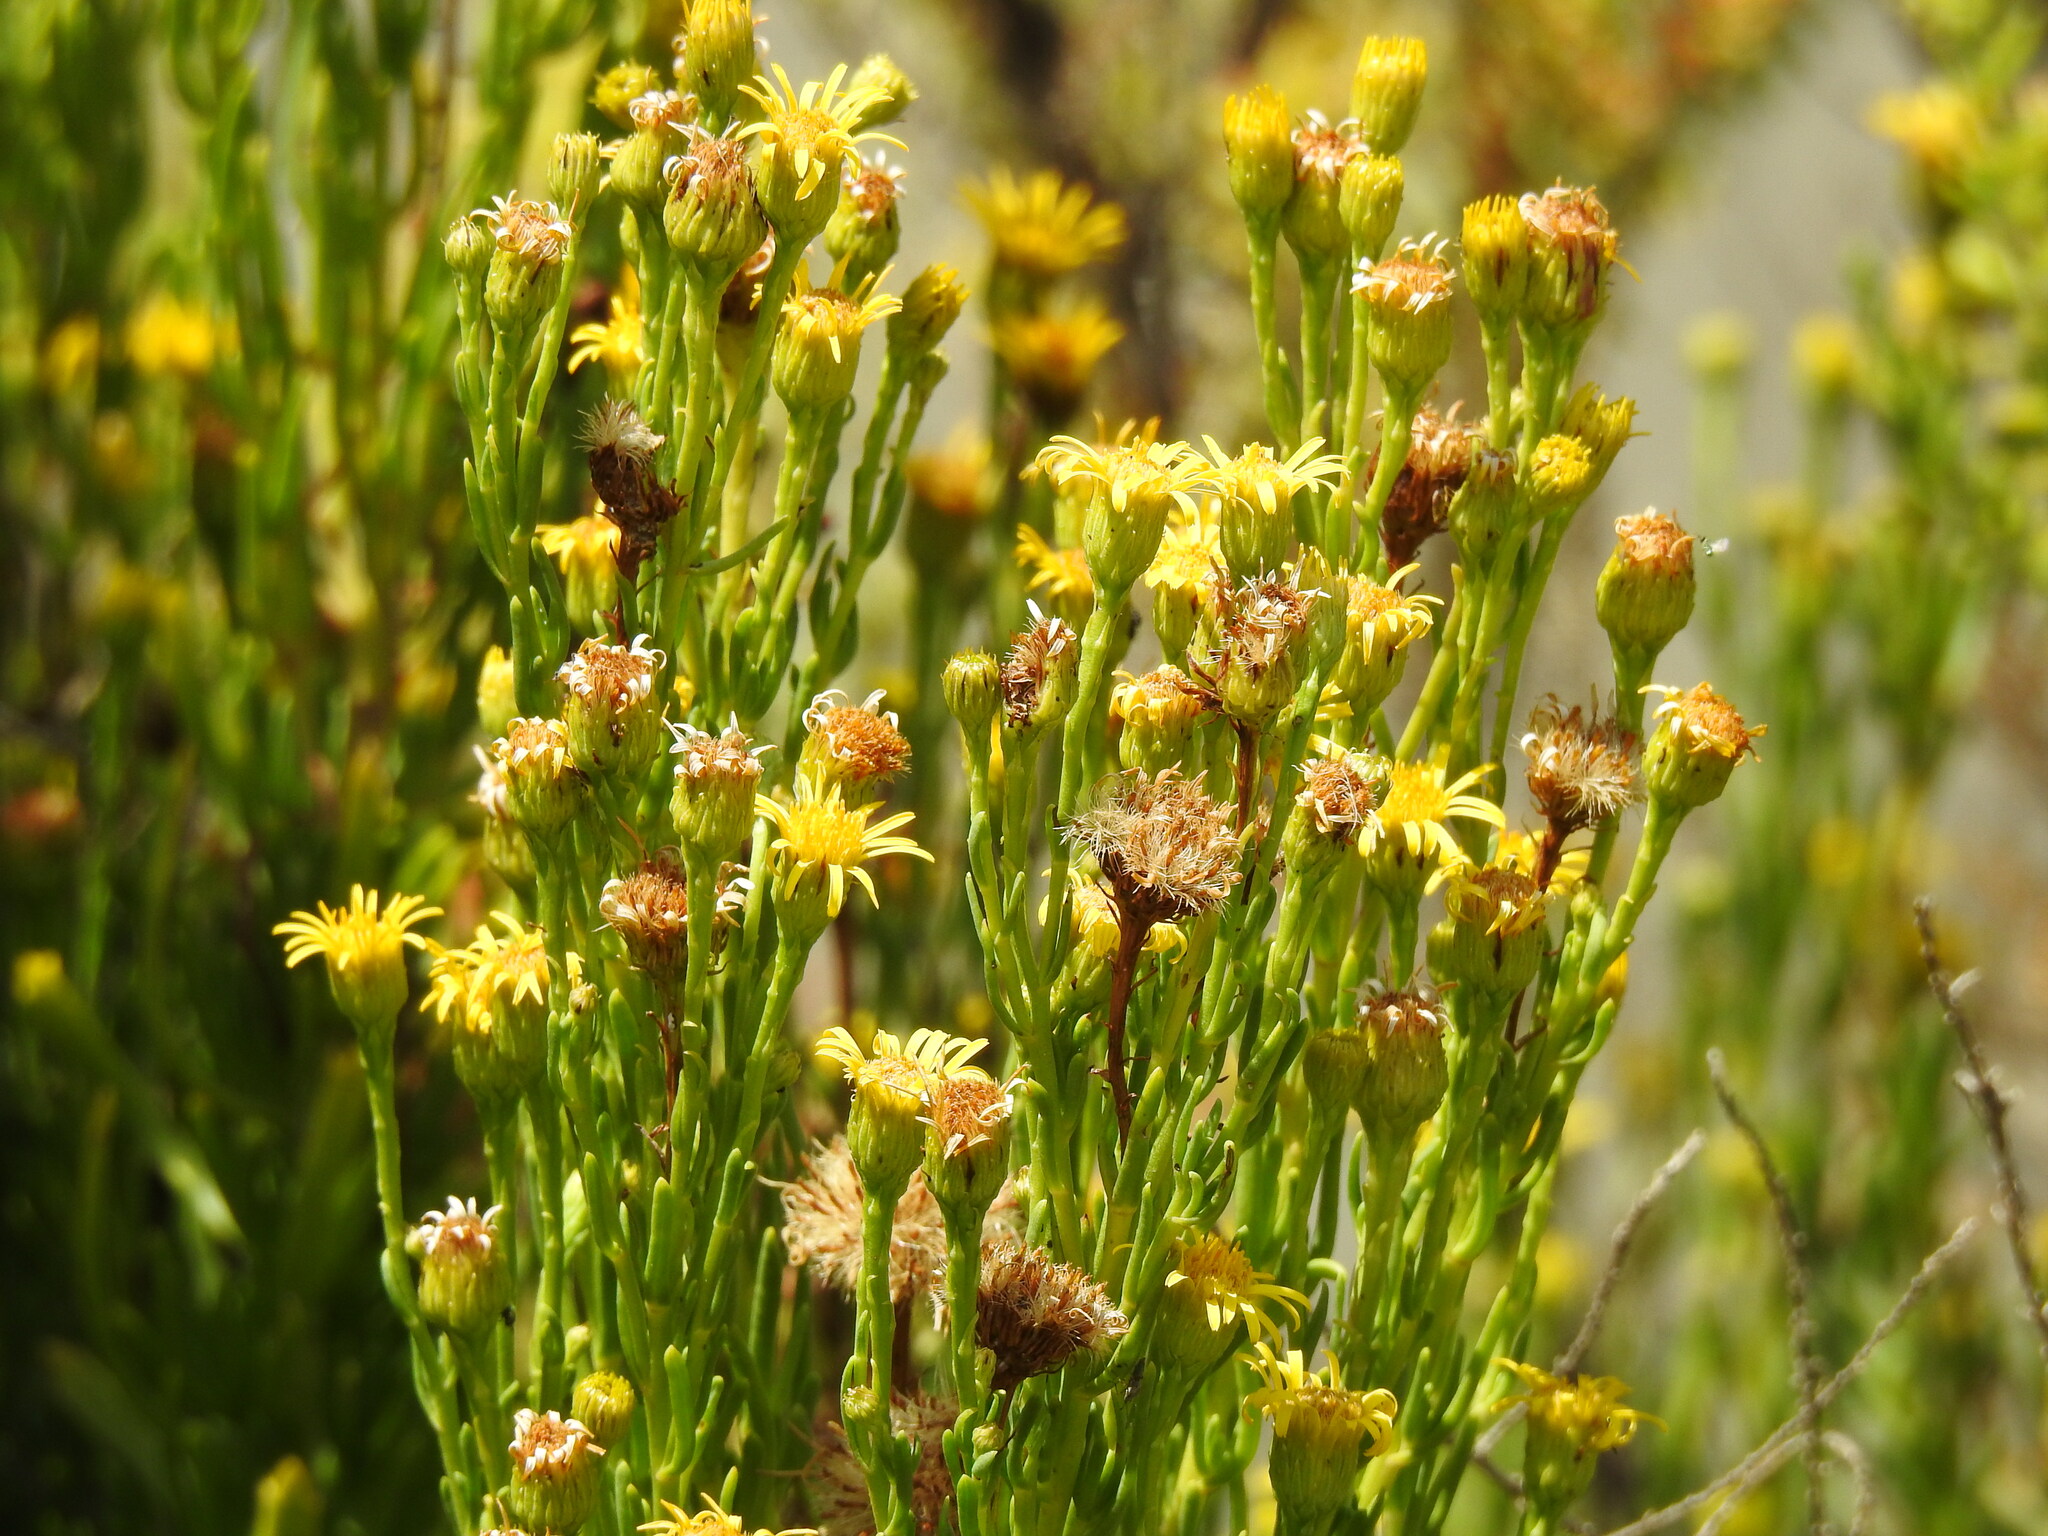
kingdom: Plantae
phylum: Tracheophyta
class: Magnoliopsida
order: Asterales
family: Asteraceae
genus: Limbarda
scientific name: Limbarda crithmoides
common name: Golden samphire
